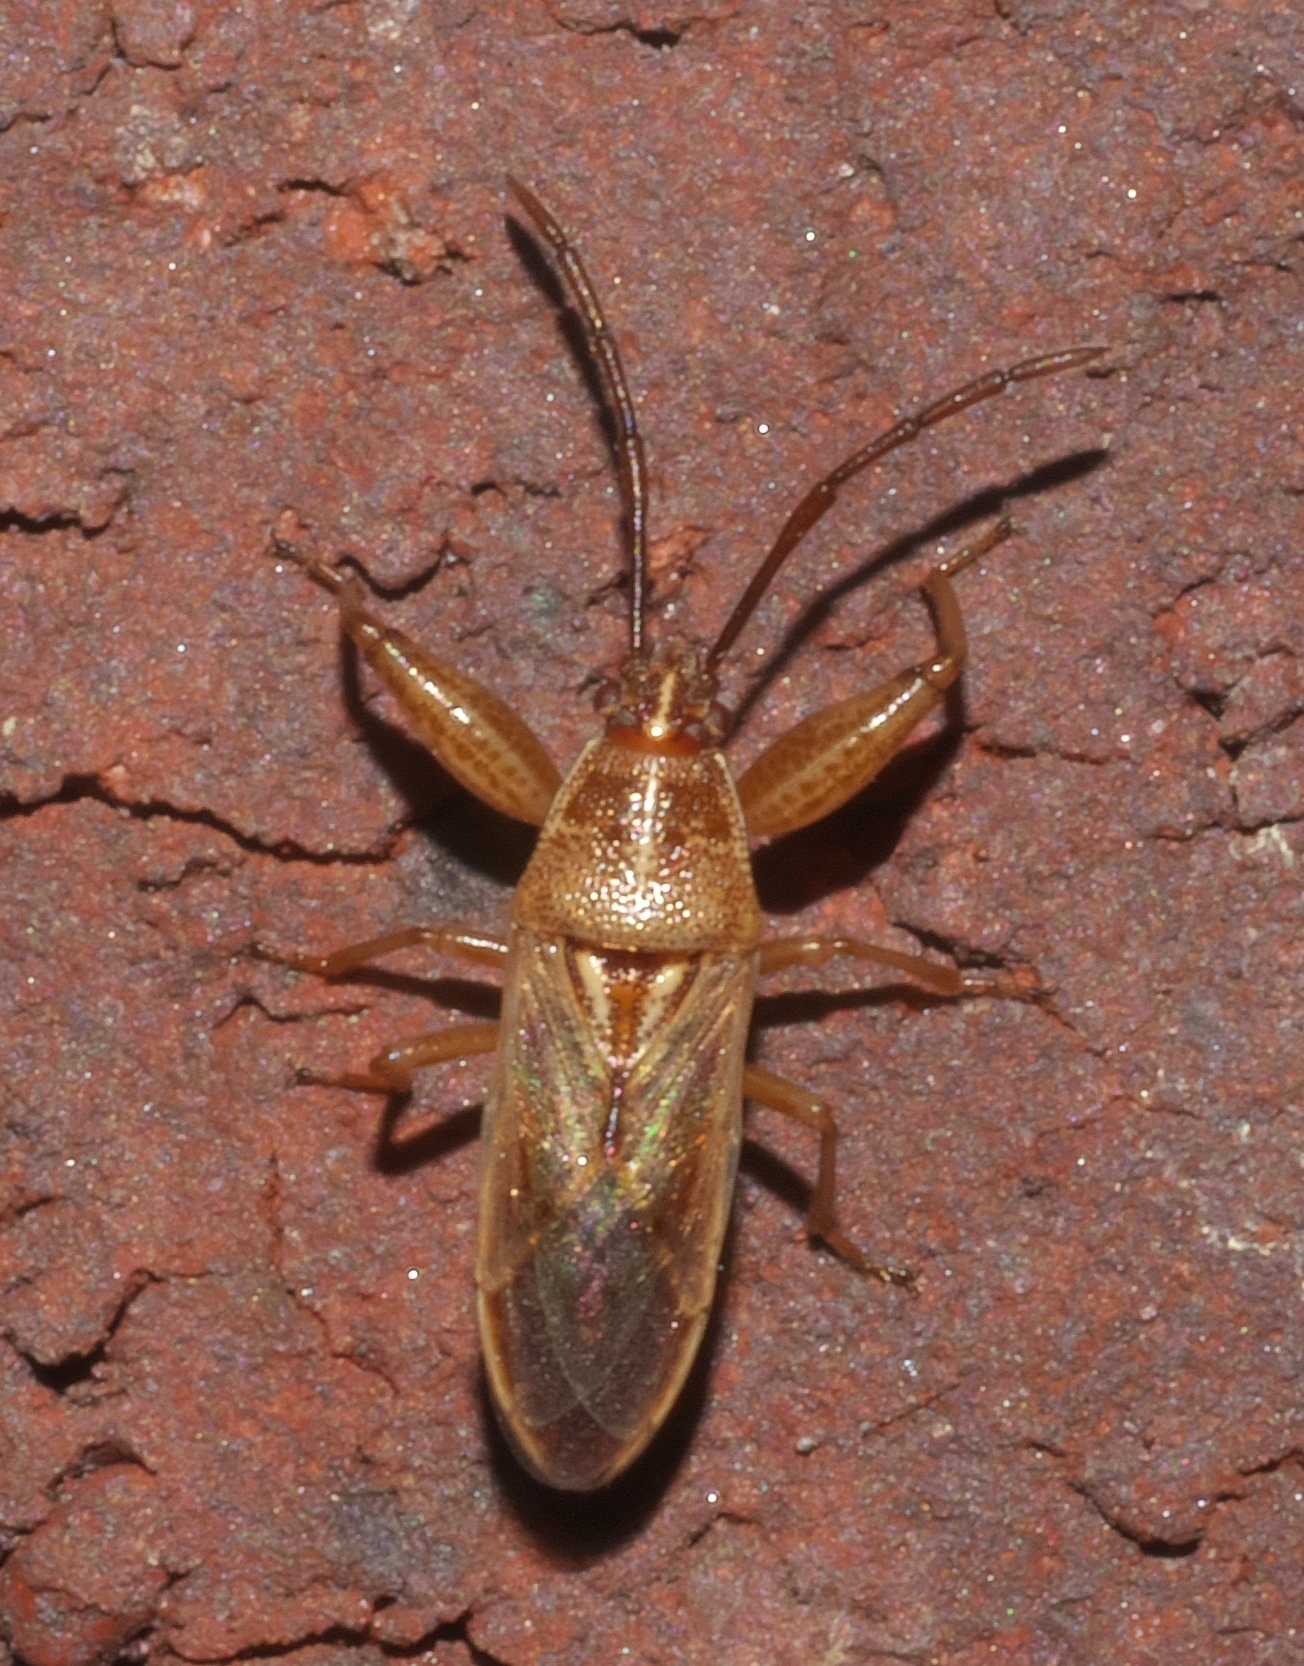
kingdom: Animalia
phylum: Arthropoda
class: Insecta
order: Hemiptera
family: Pachygronthidae
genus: Oedancala
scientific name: Oedancala crassimana
